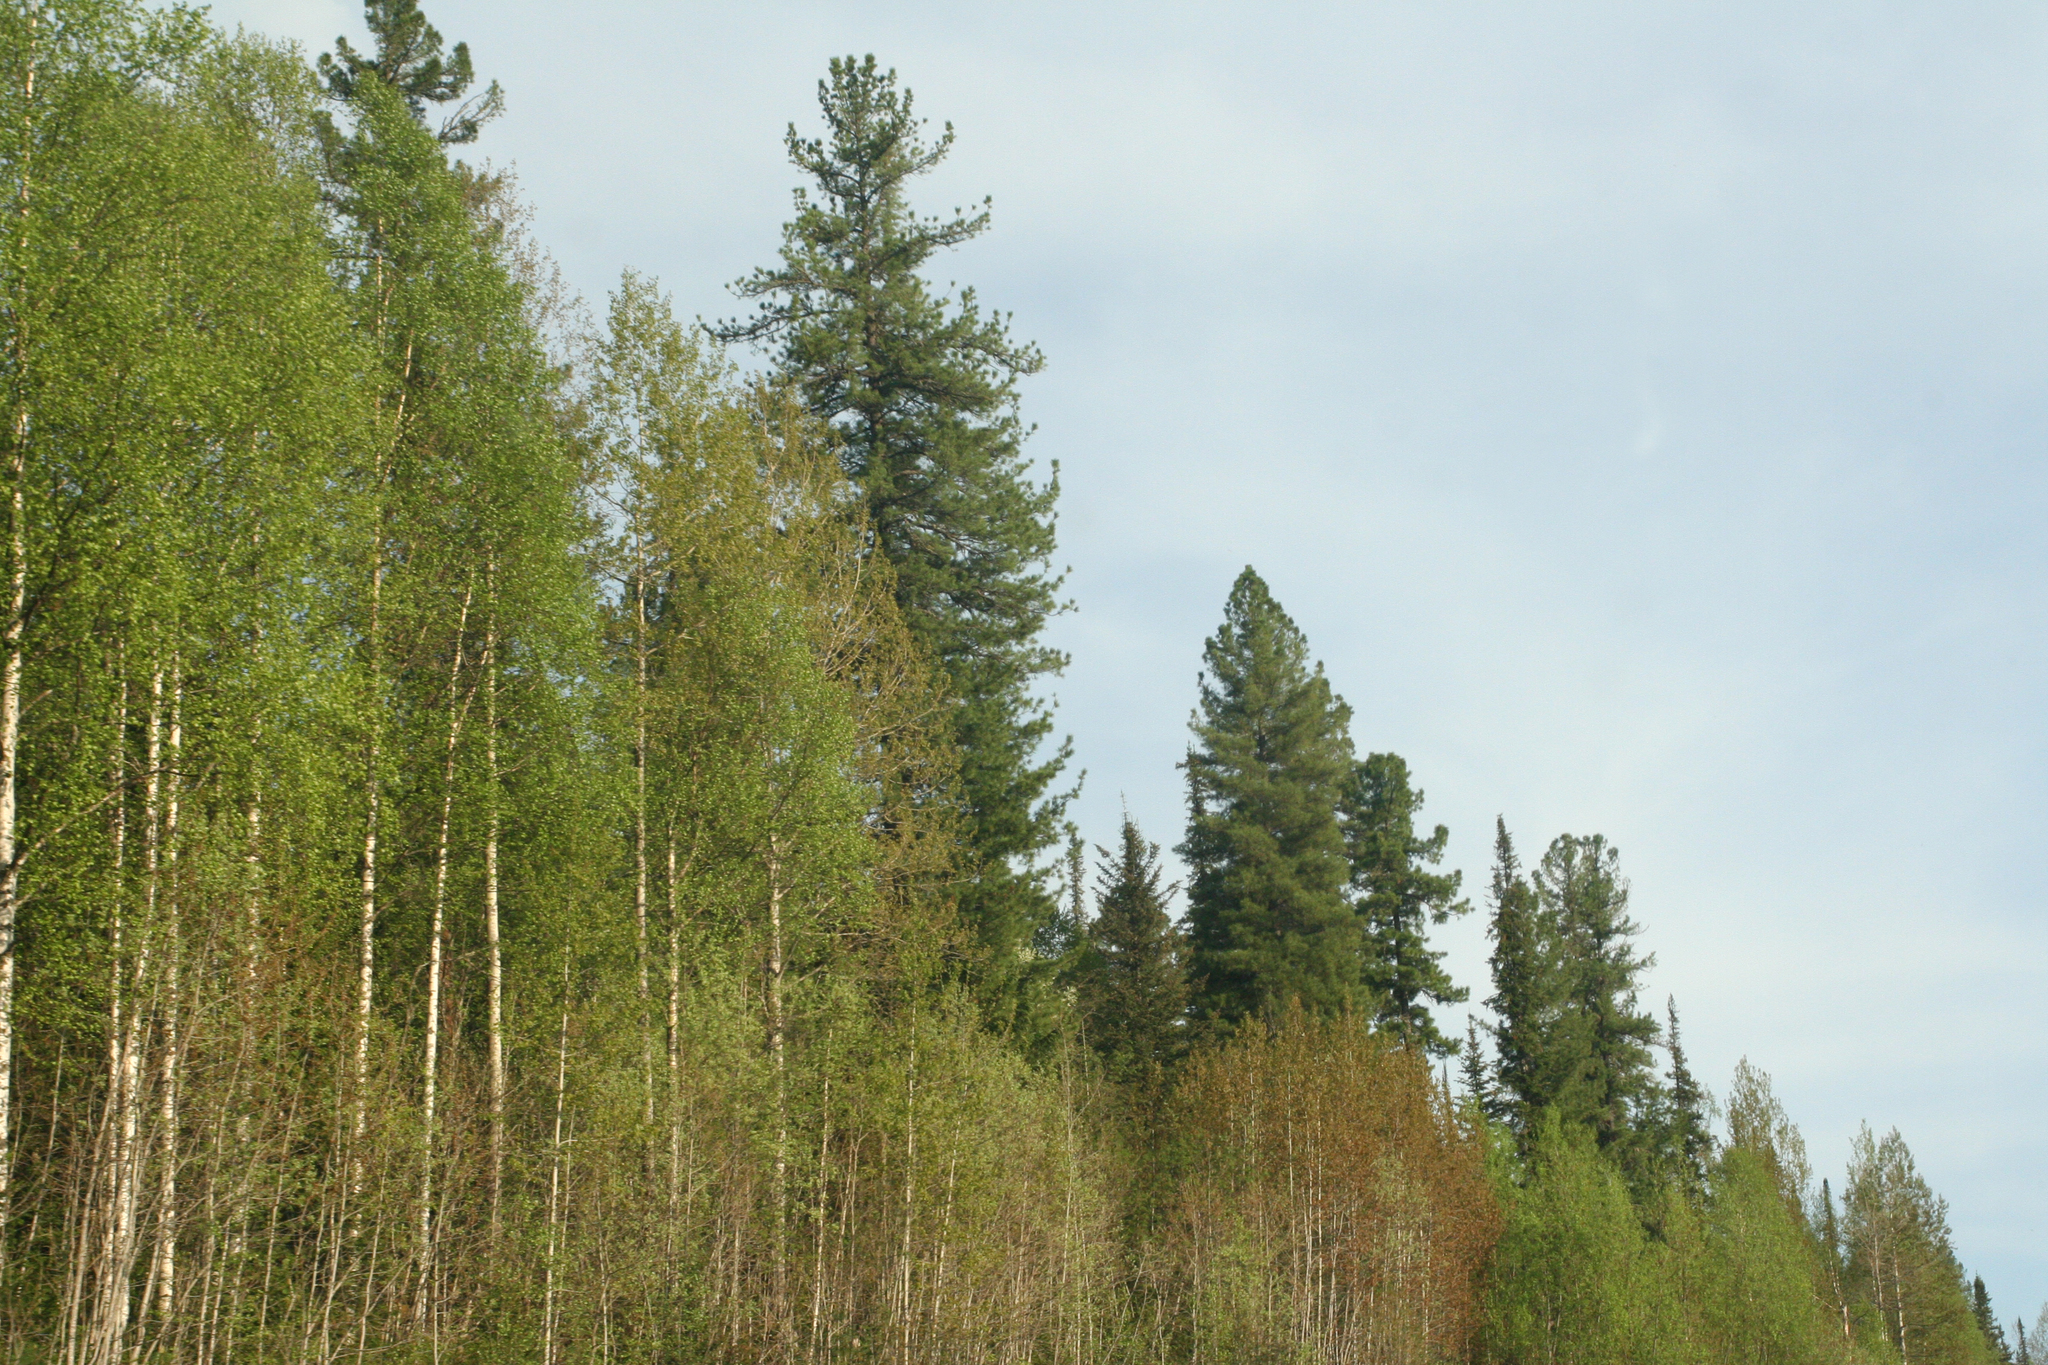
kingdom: Plantae
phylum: Tracheophyta
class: Pinopsida
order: Pinales
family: Pinaceae
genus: Abies
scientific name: Abies sibirica
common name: Siberian fir
